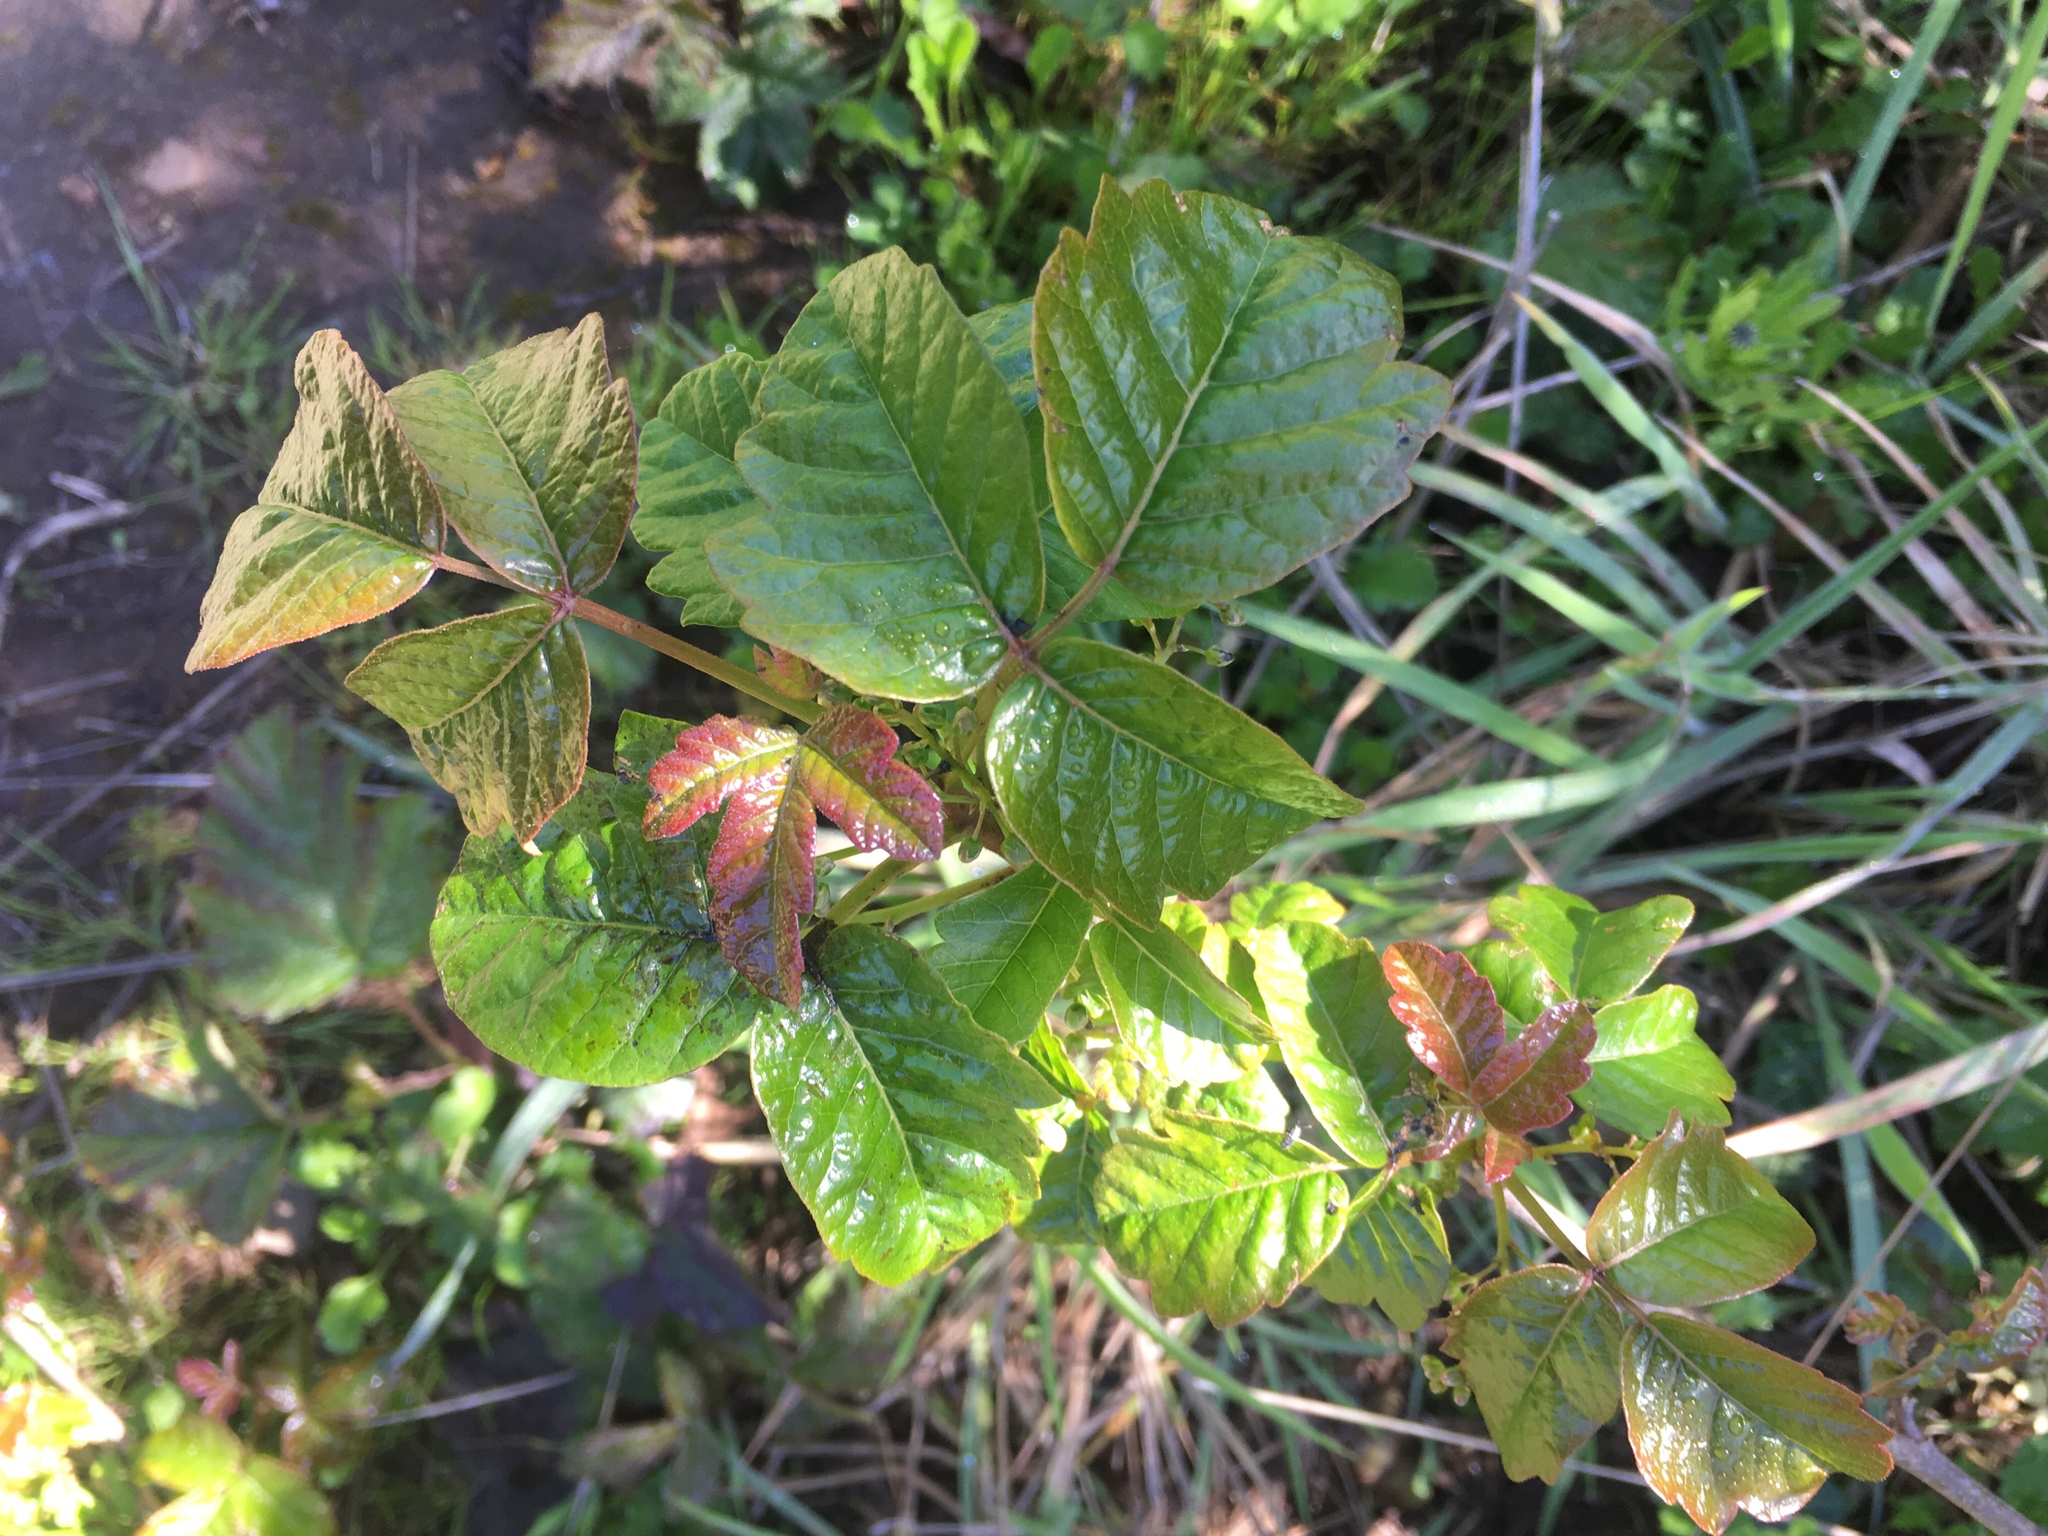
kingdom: Plantae
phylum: Tracheophyta
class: Magnoliopsida
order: Sapindales
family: Anacardiaceae
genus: Toxicodendron
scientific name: Toxicodendron diversilobum
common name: Pacific poison-oak
